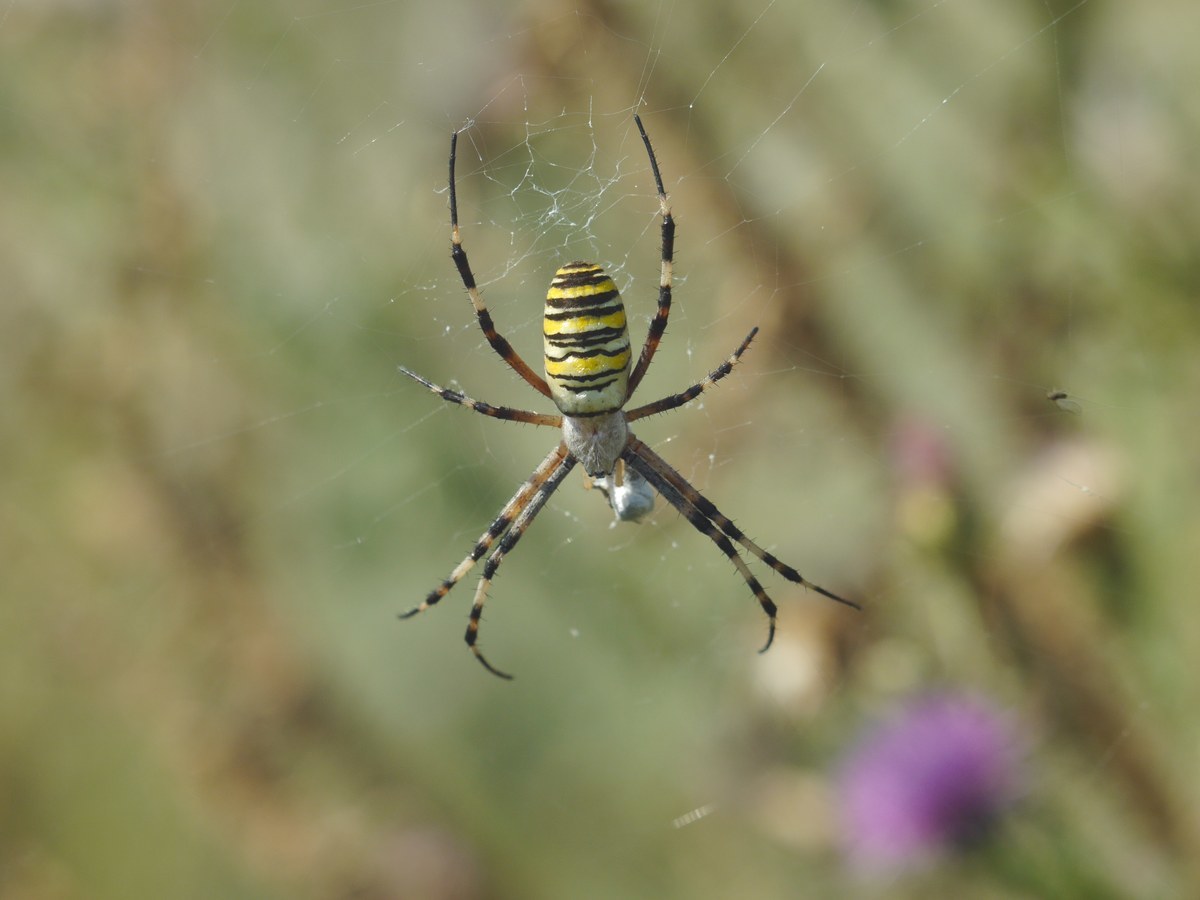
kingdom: Animalia
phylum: Arthropoda
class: Arachnida
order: Araneae
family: Araneidae
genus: Argiope
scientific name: Argiope bruennichi
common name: Wasp spider
